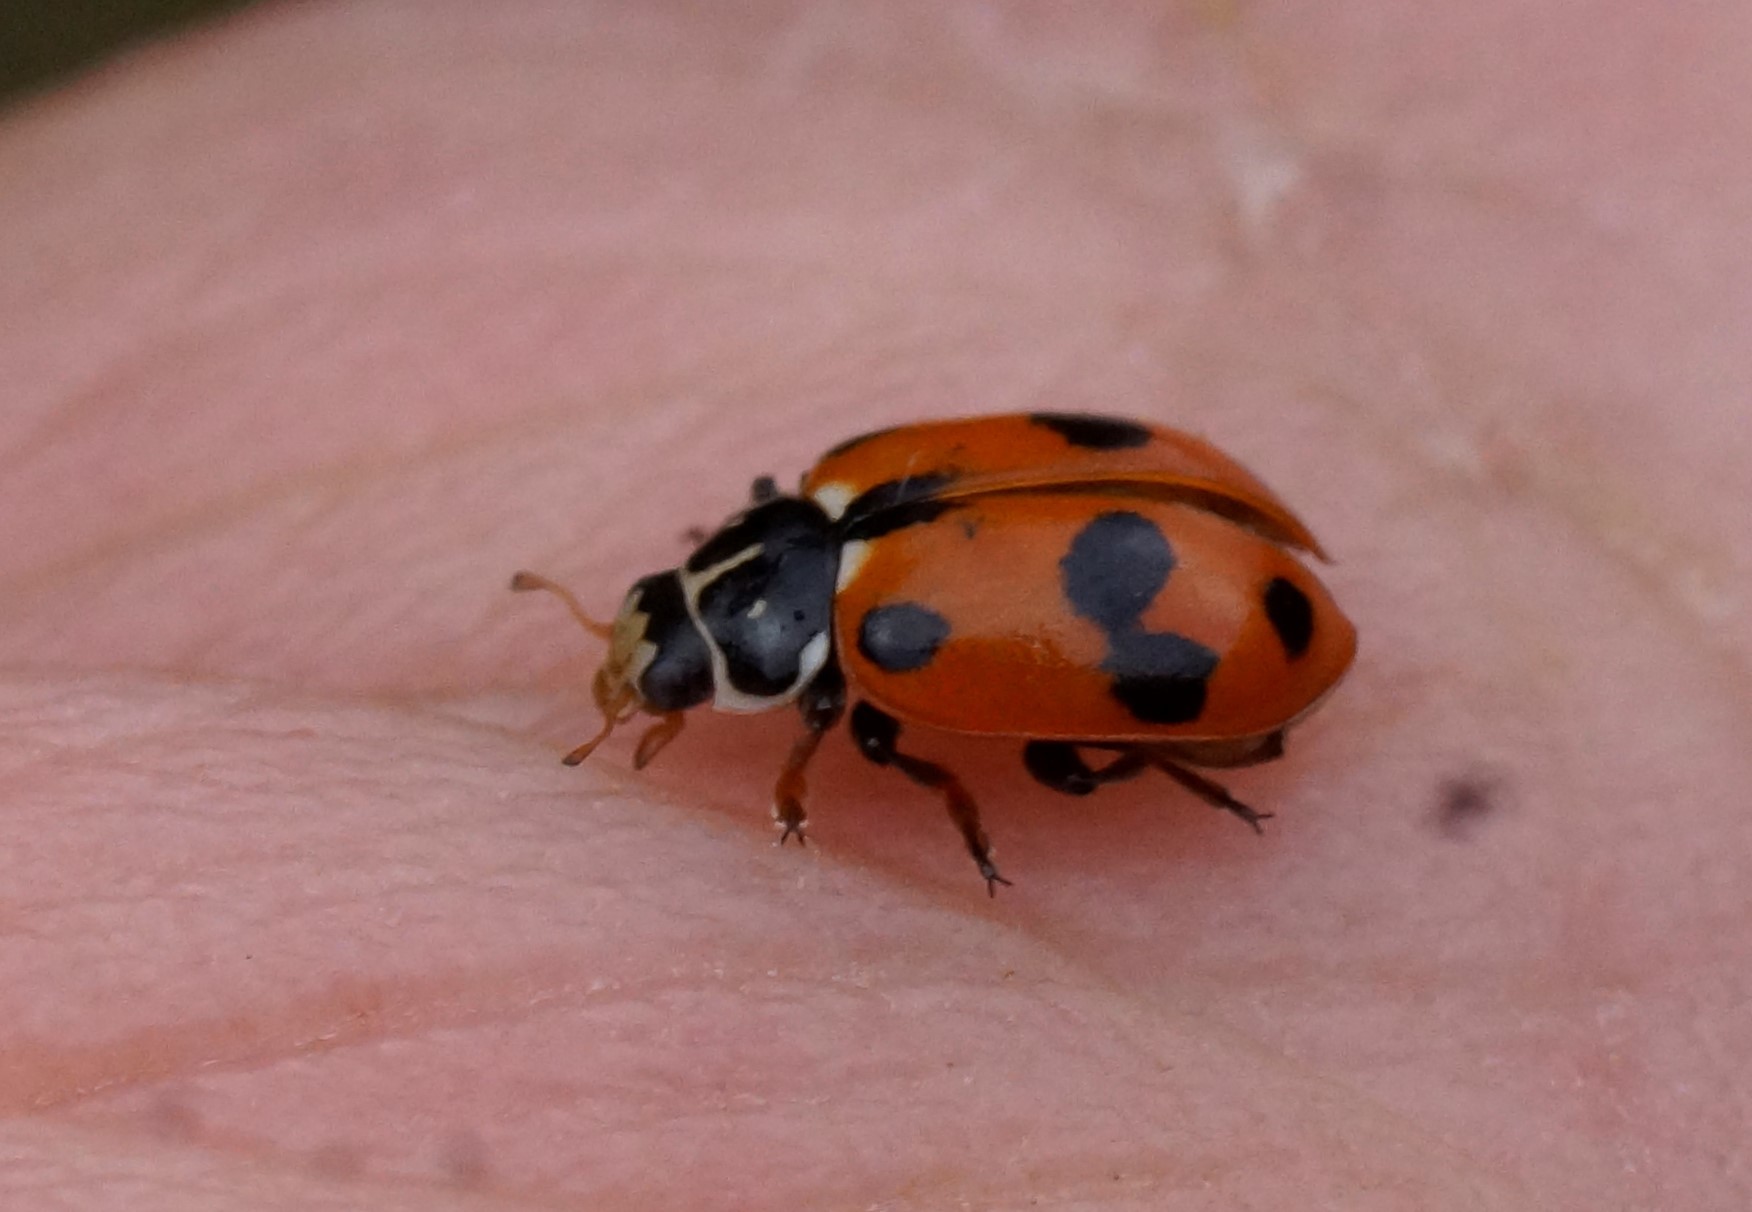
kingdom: Animalia
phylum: Arthropoda
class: Insecta
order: Coleoptera
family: Coccinellidae
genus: Hippodamia
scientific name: Hippodamia variegata
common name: Ladybird beetle
